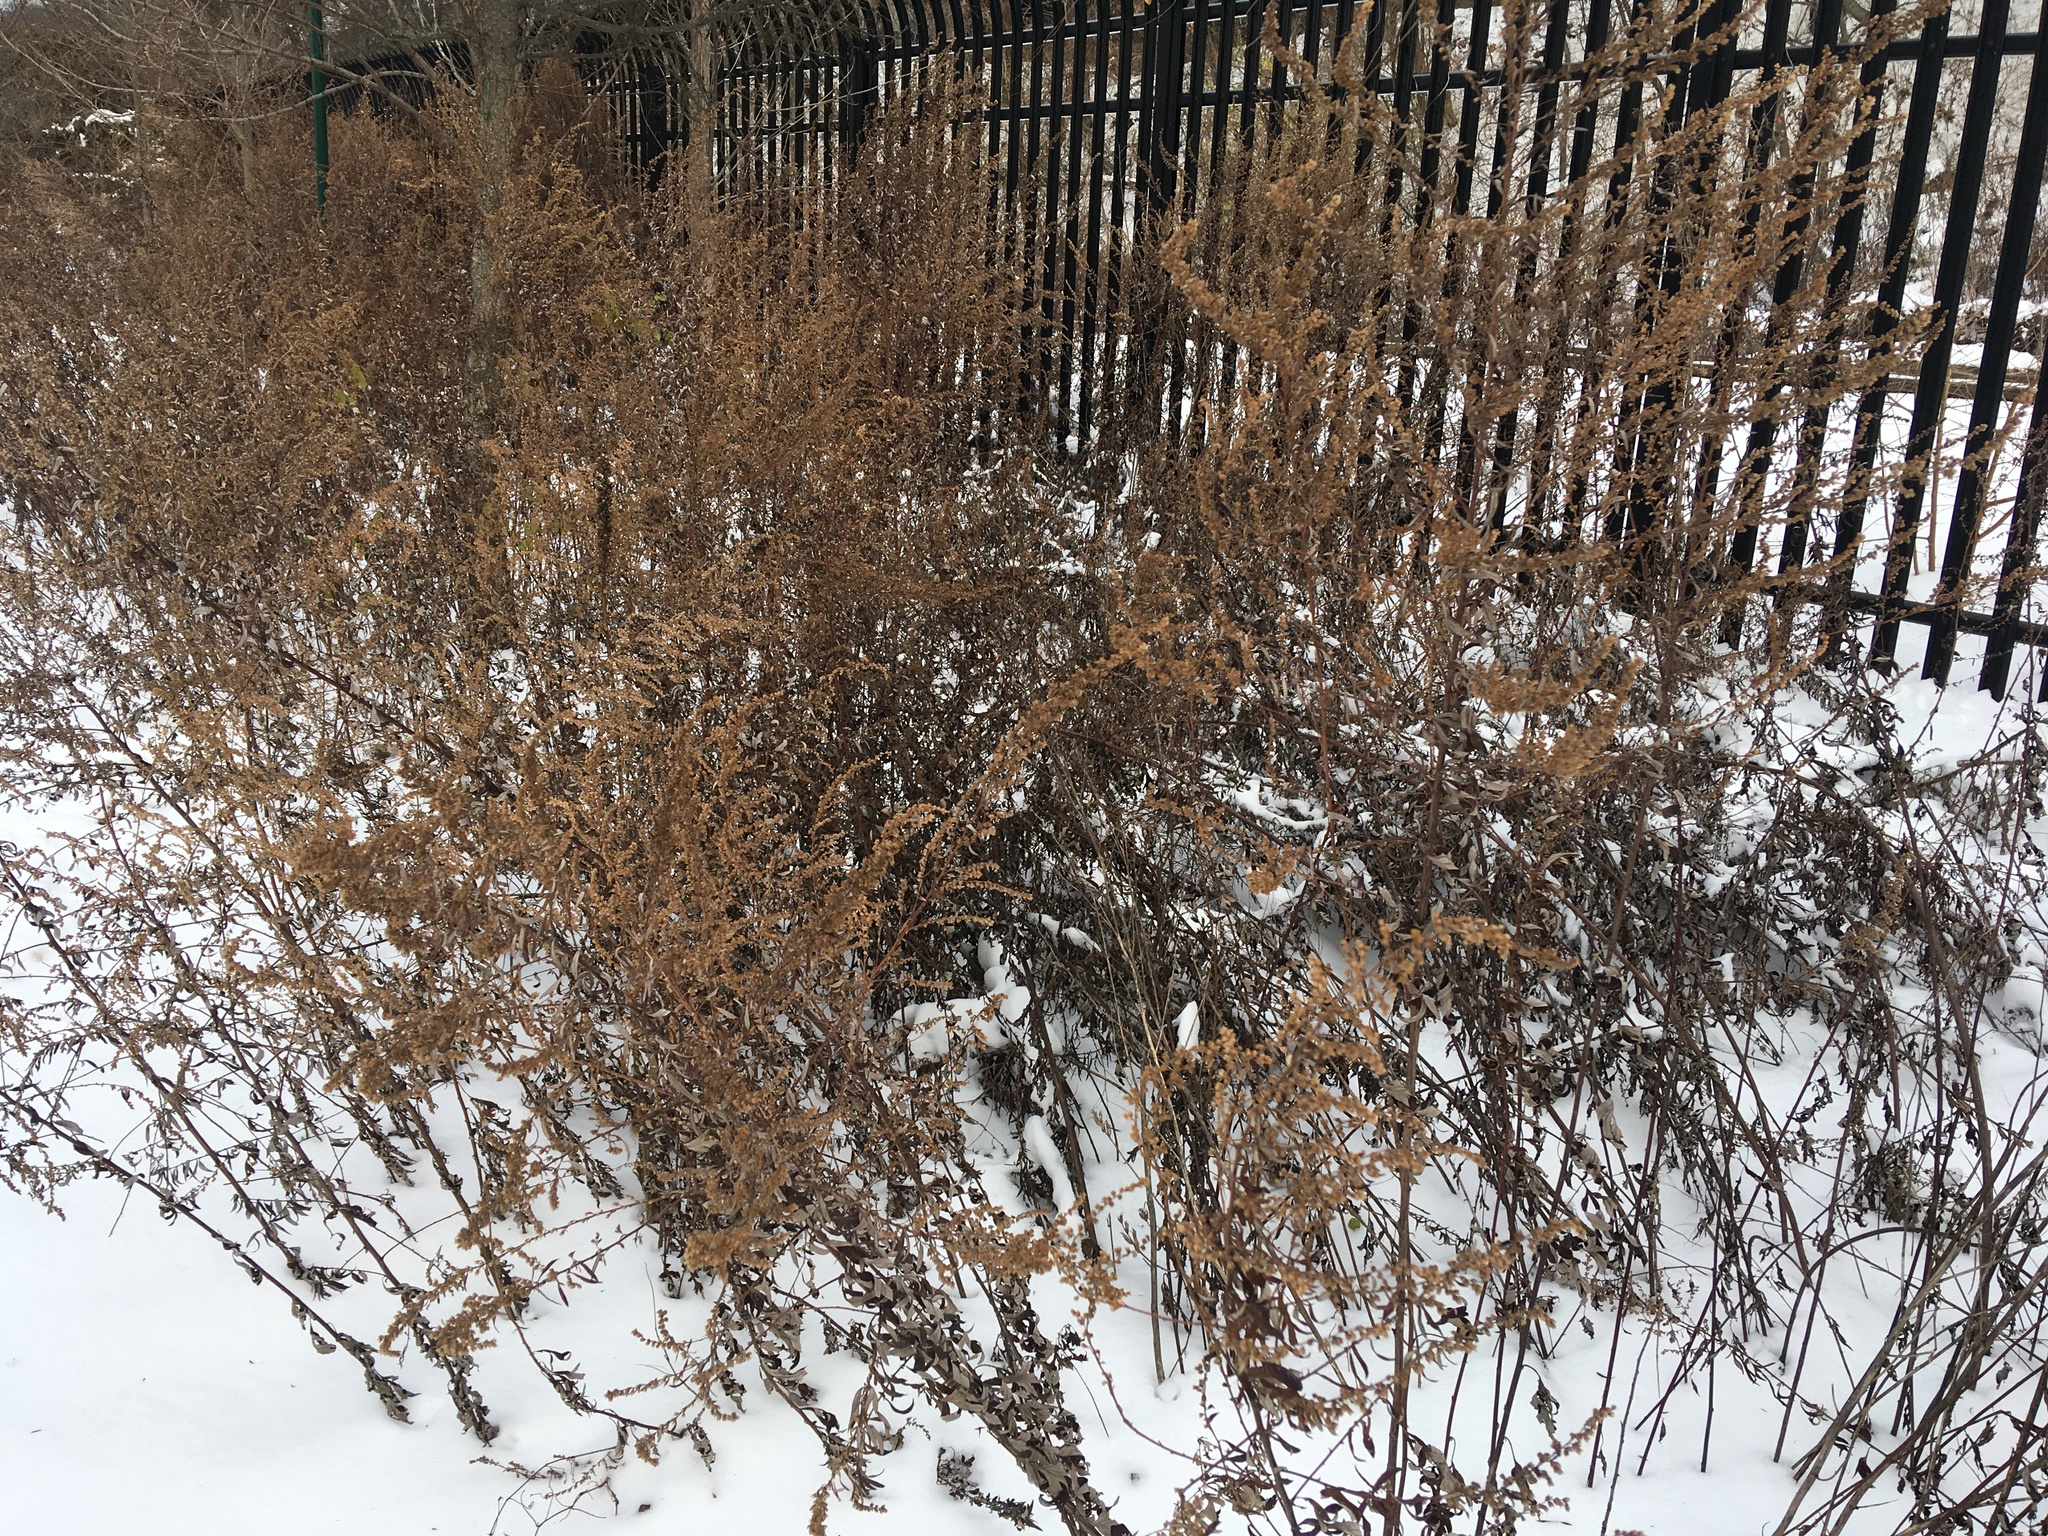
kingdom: Plantae
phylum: Tracheophyta
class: Magnoliopsida
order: Asterales
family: Asteraceae
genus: Artemisia
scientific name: Artemisia vulgaris
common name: Mugwort
